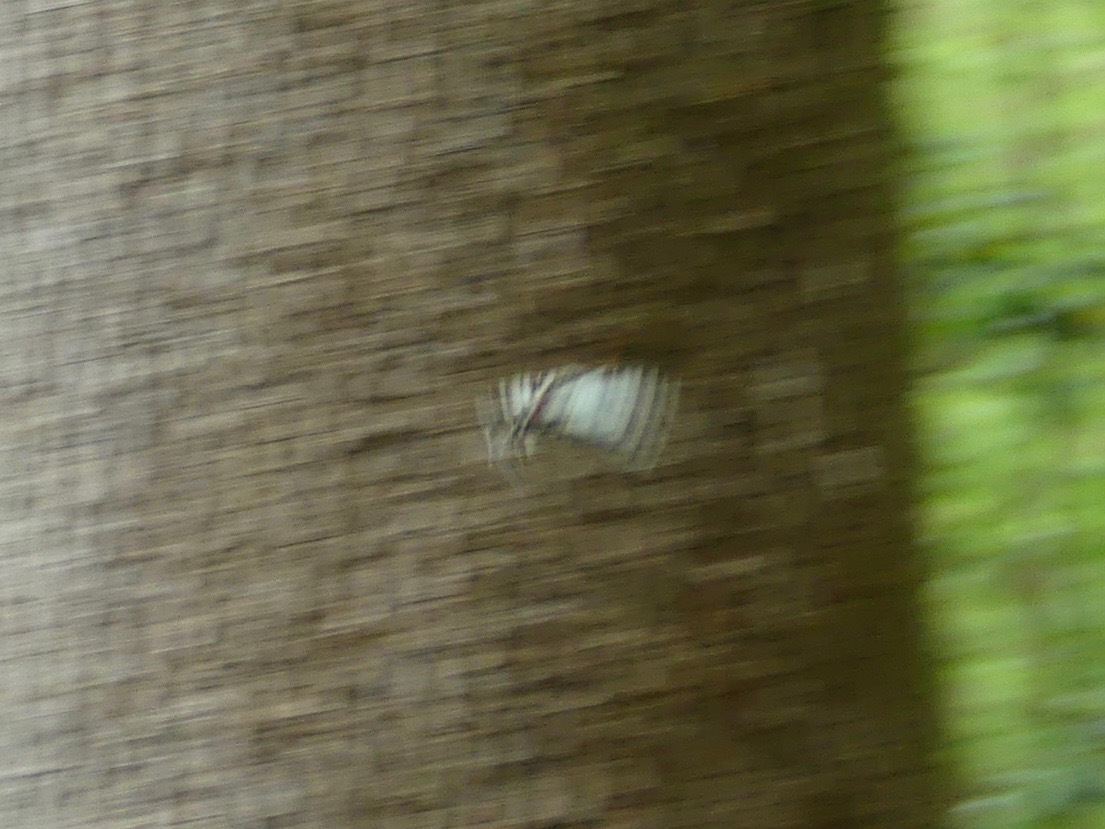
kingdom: Animalia
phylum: Arthropoda
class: Insecta
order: Lepidoptera
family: Papilionidae
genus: Protographium
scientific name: Protographium marcellus
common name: Zebra swallowtail
